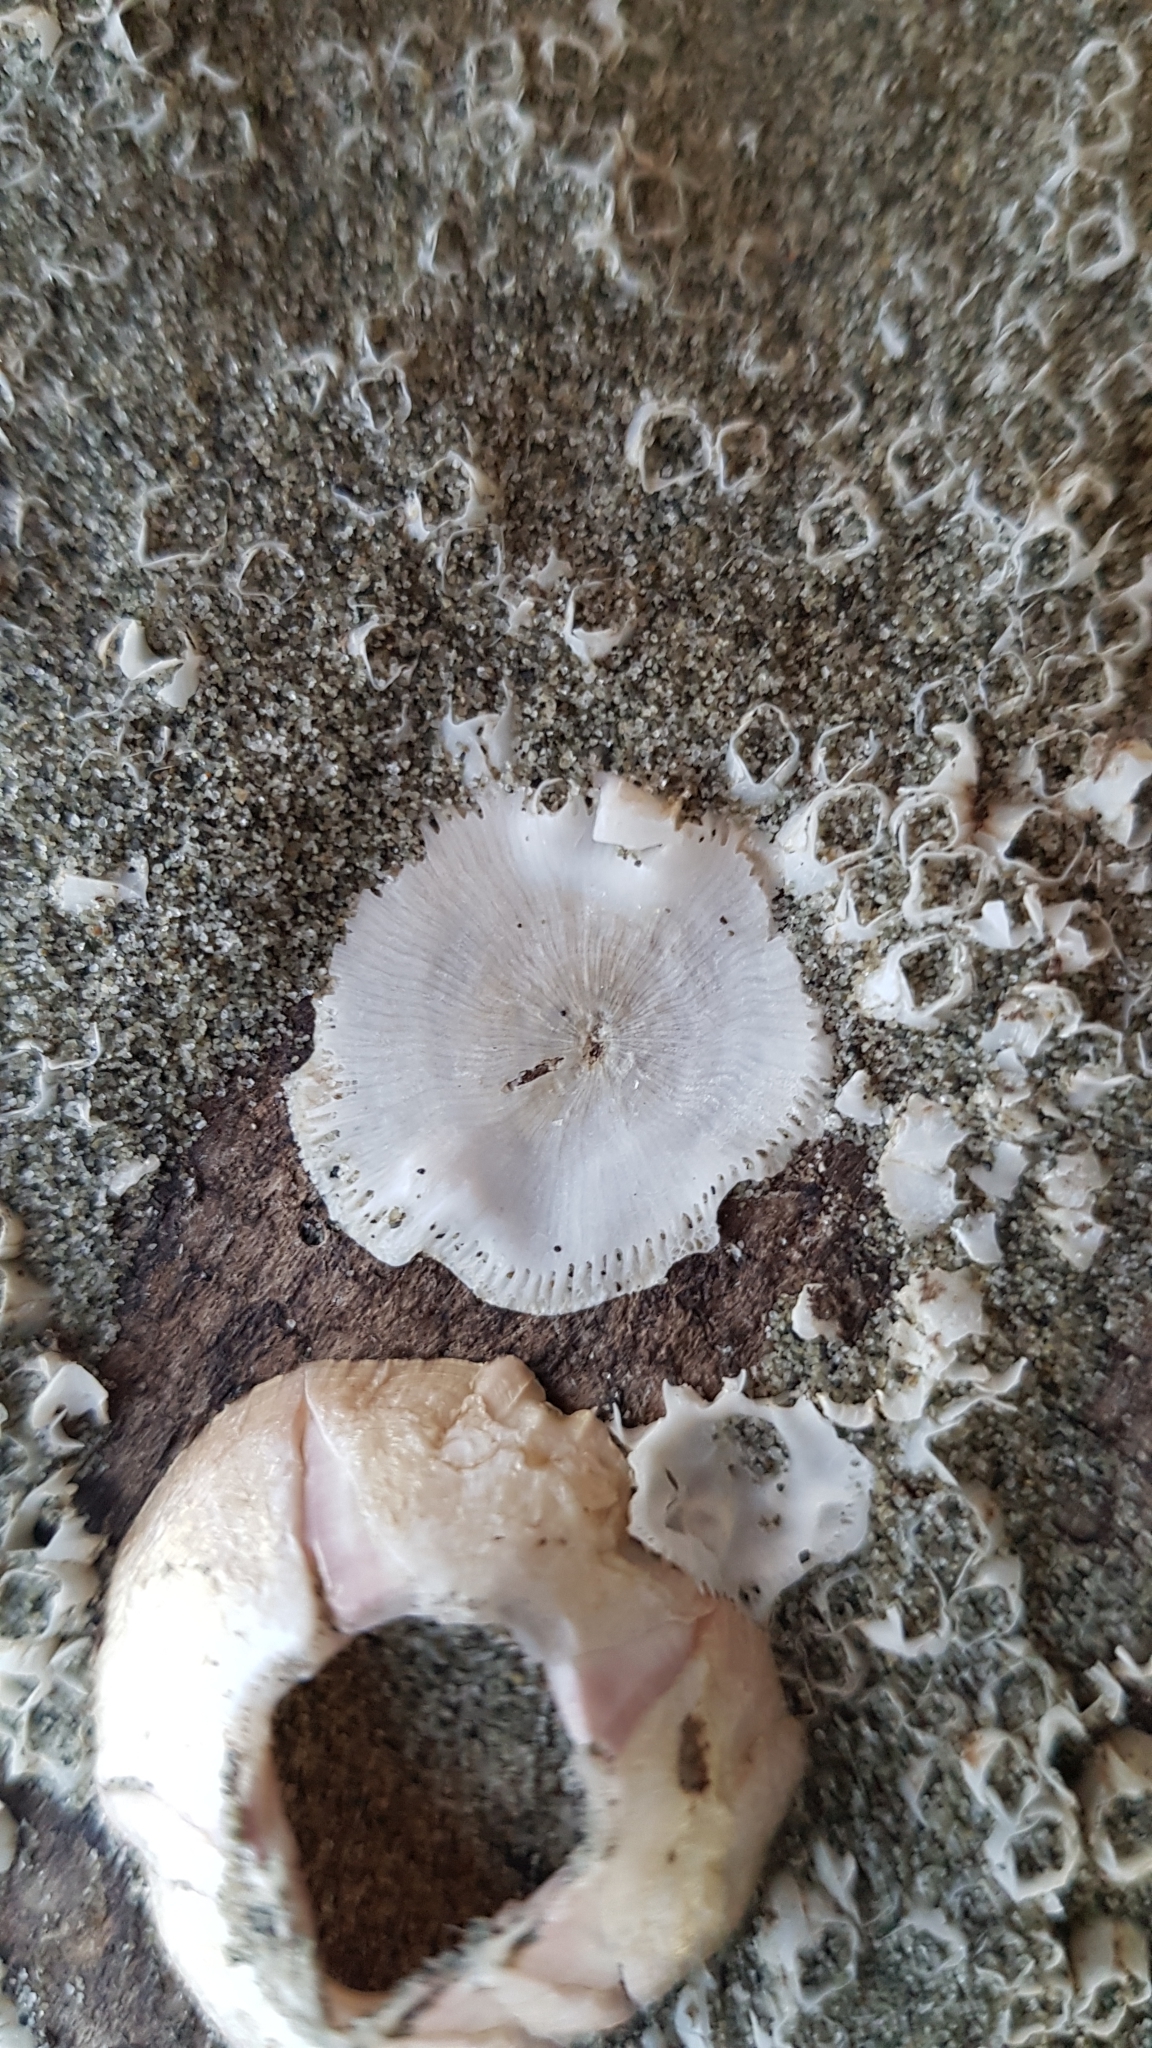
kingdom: Animalia
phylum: Arthropoda
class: Maxillopoda
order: Sessilia
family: Balanidae
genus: Notomegabalanus
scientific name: Notomegabalanus decorus
